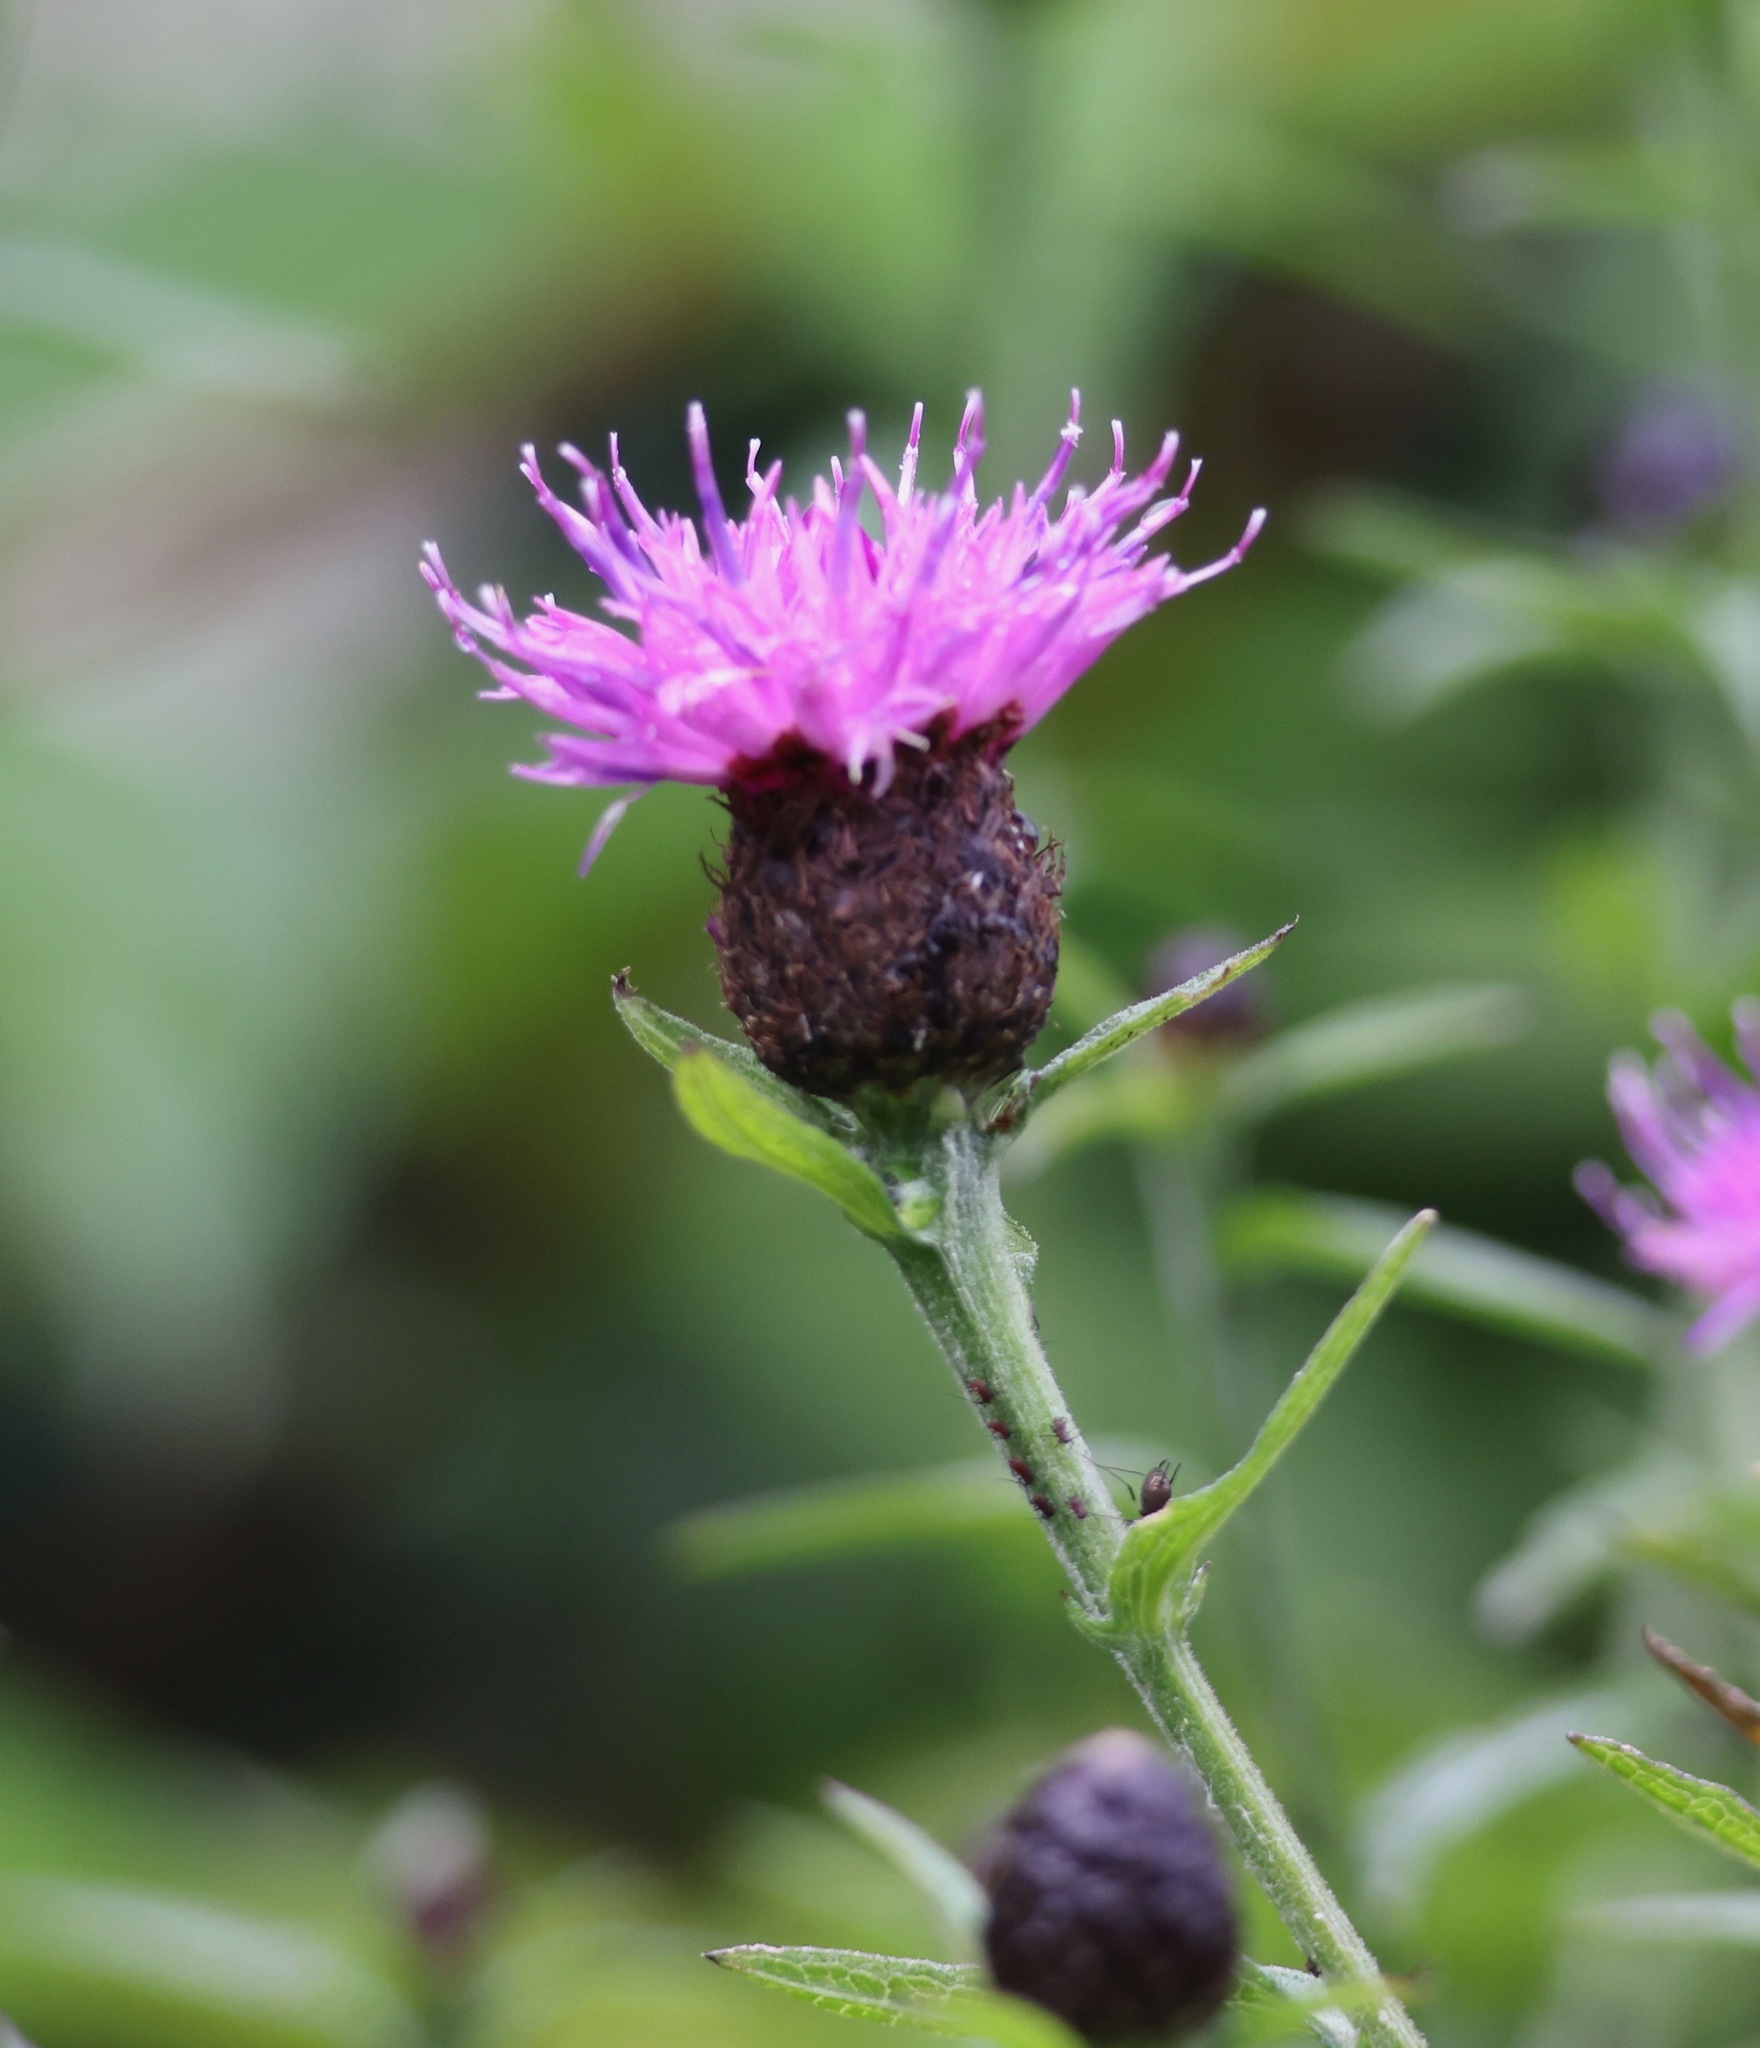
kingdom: Plantae
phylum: Tracheophyta
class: Magnoliopsida
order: Asterales
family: Asteraceae
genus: Centaurea
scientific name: Centaurea nigra
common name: Lesser knapweed
